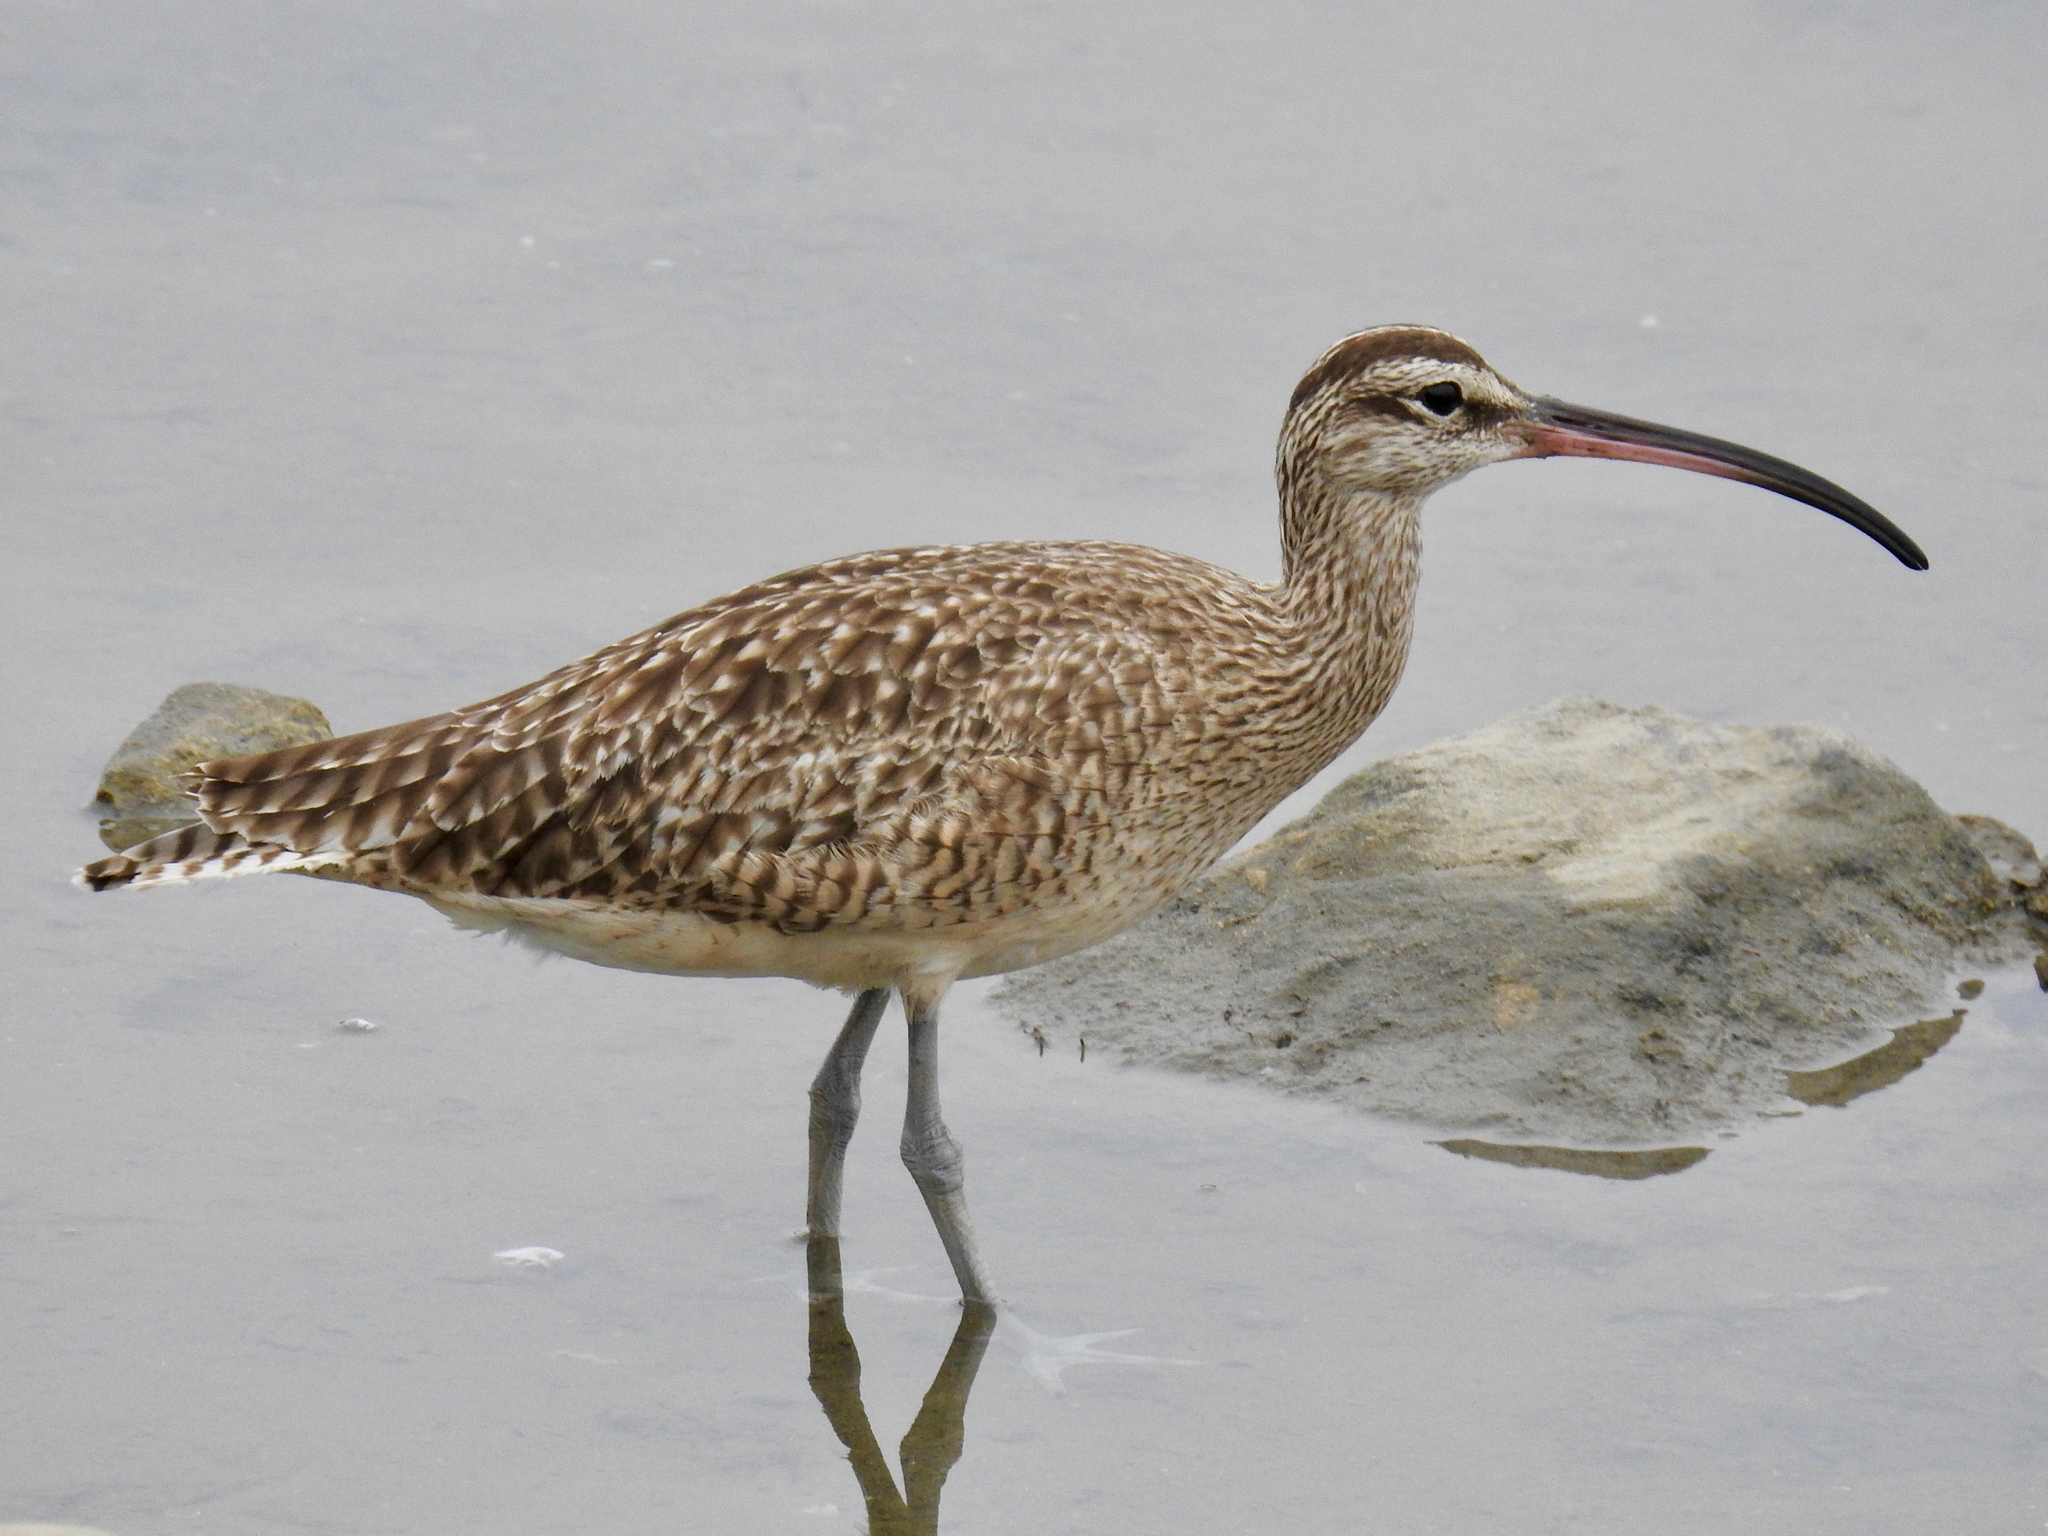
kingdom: Animalia
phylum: Chordata
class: Aves
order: Charadriiformes
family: Scolopacidae
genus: Numenius
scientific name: Numenius phaeopus
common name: Whimbrel
